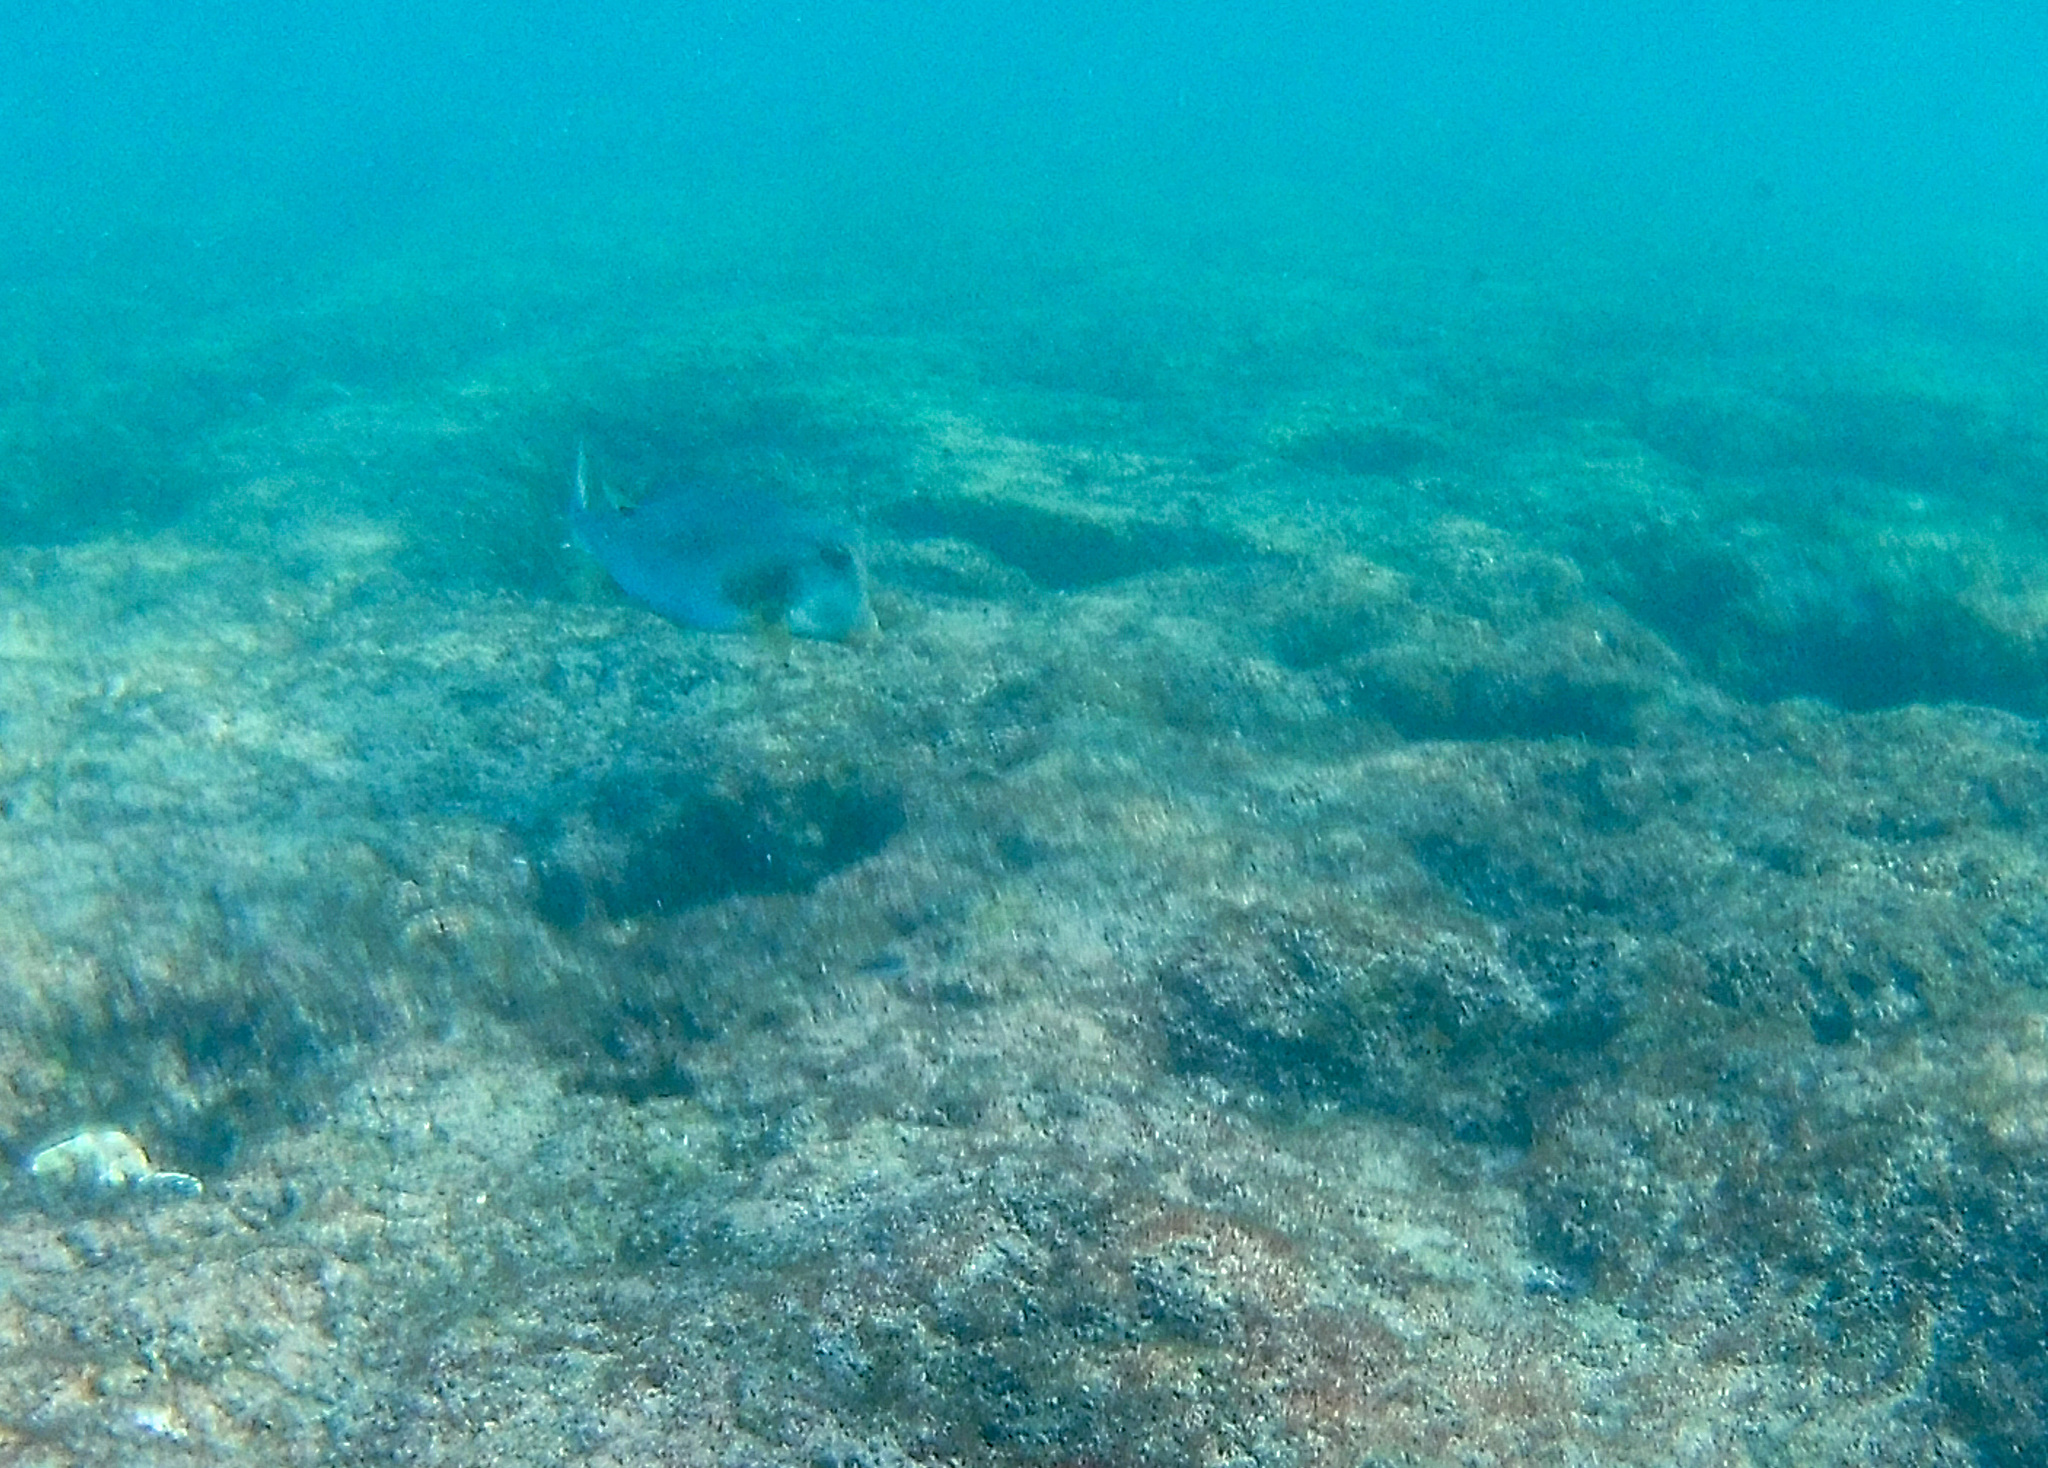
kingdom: Animalia
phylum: Chordata
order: Tetraodontiformes
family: Ostraciidae
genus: Lactophrys
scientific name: Lactophrys trigonus
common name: Buffalo trunkfish
